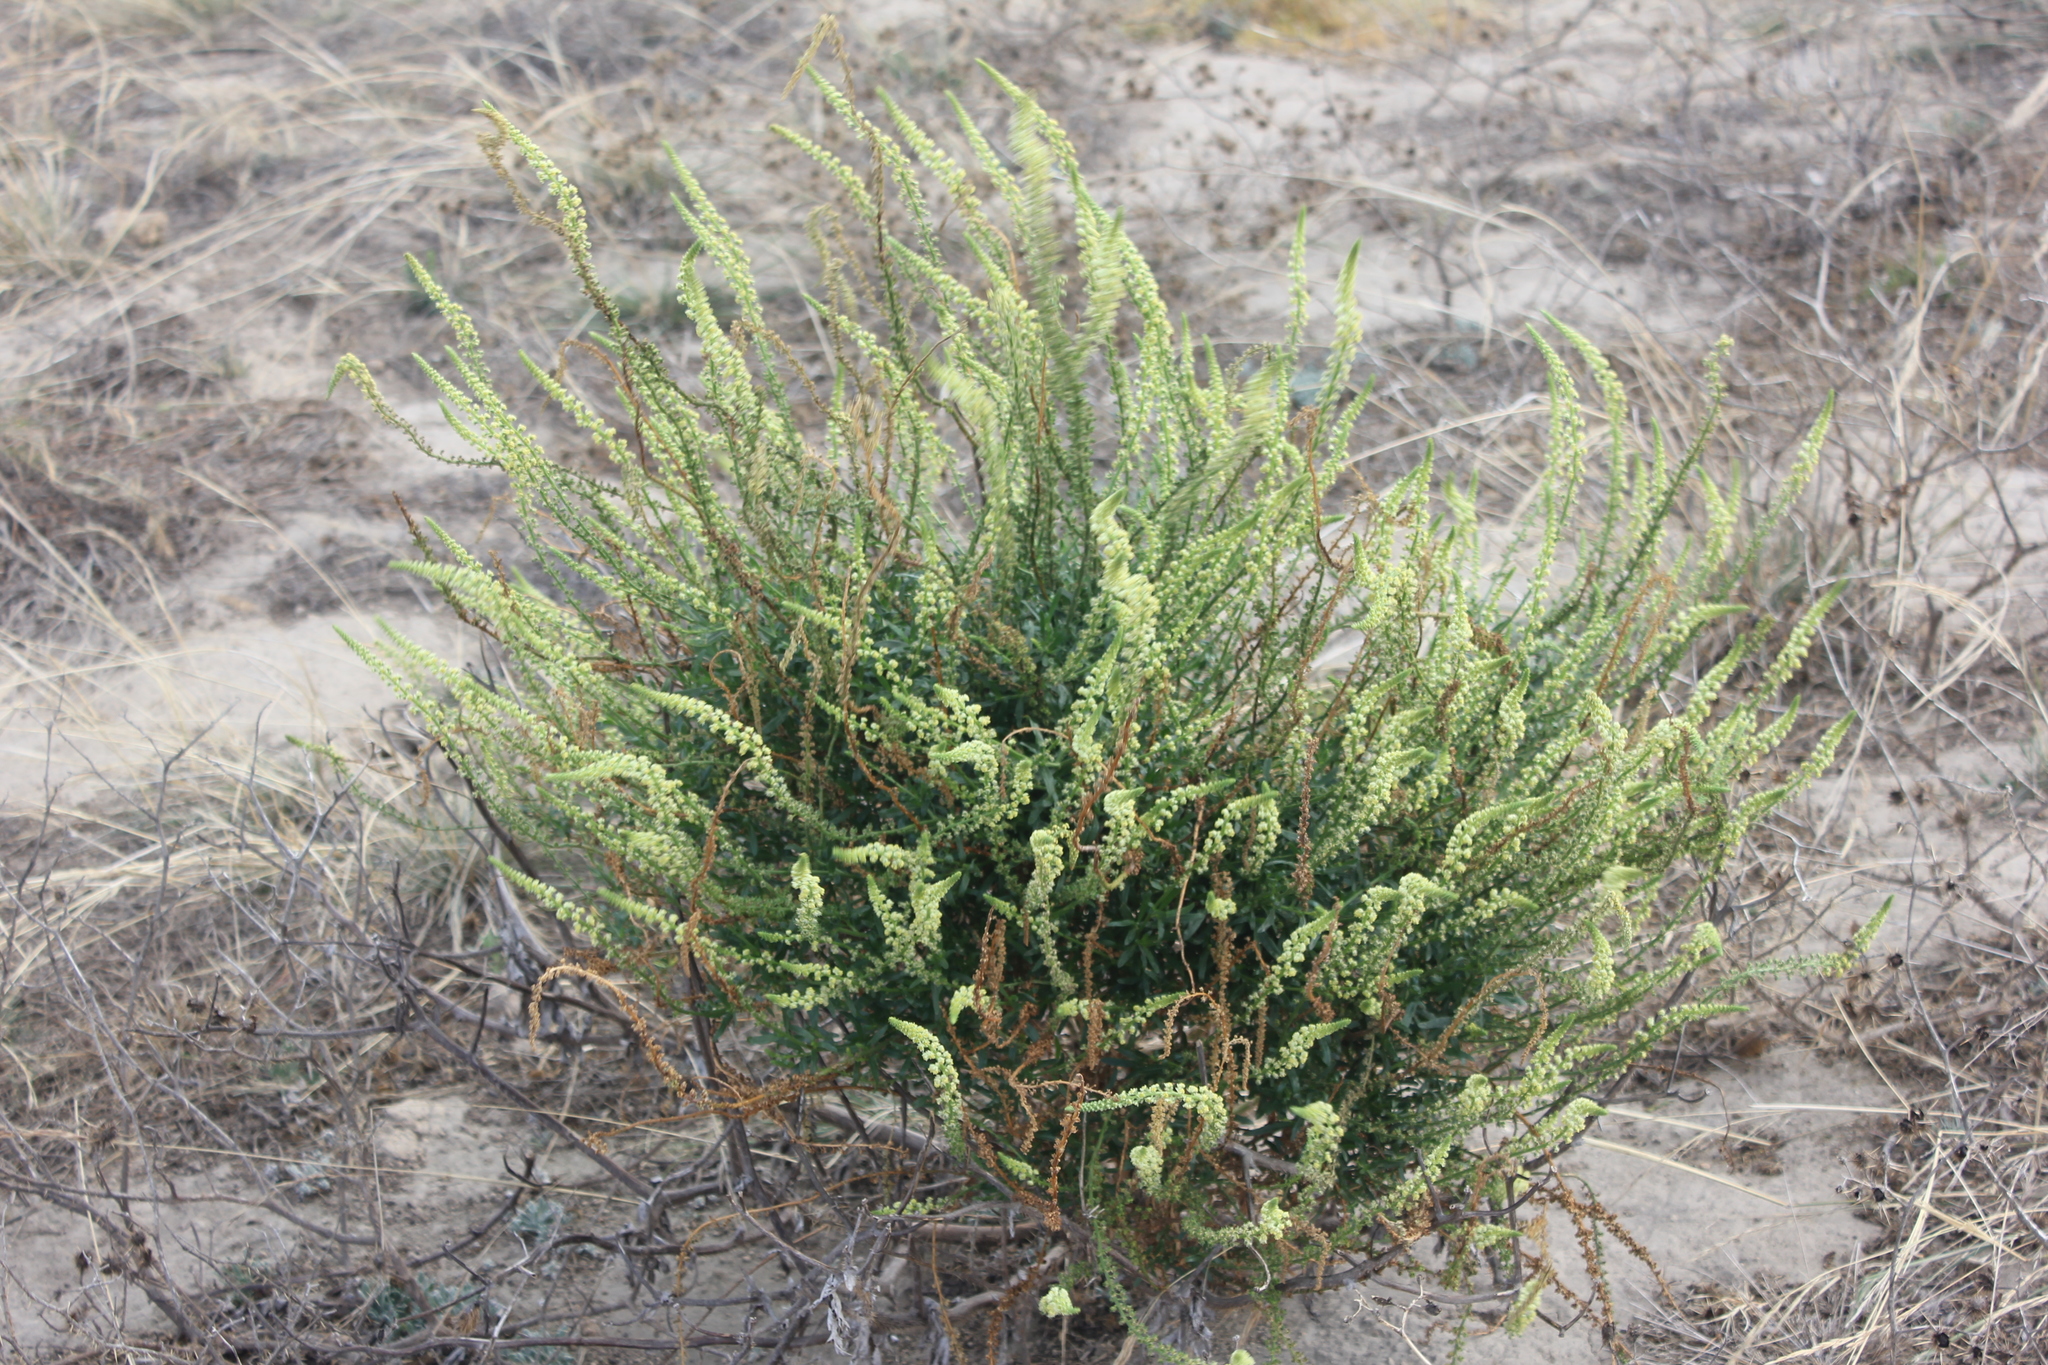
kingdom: Plantae
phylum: Tracheophyta
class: Magnoliopsida
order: Brassicales
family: Resedaceae
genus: Reseda
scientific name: Reseda luteola
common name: Weld
